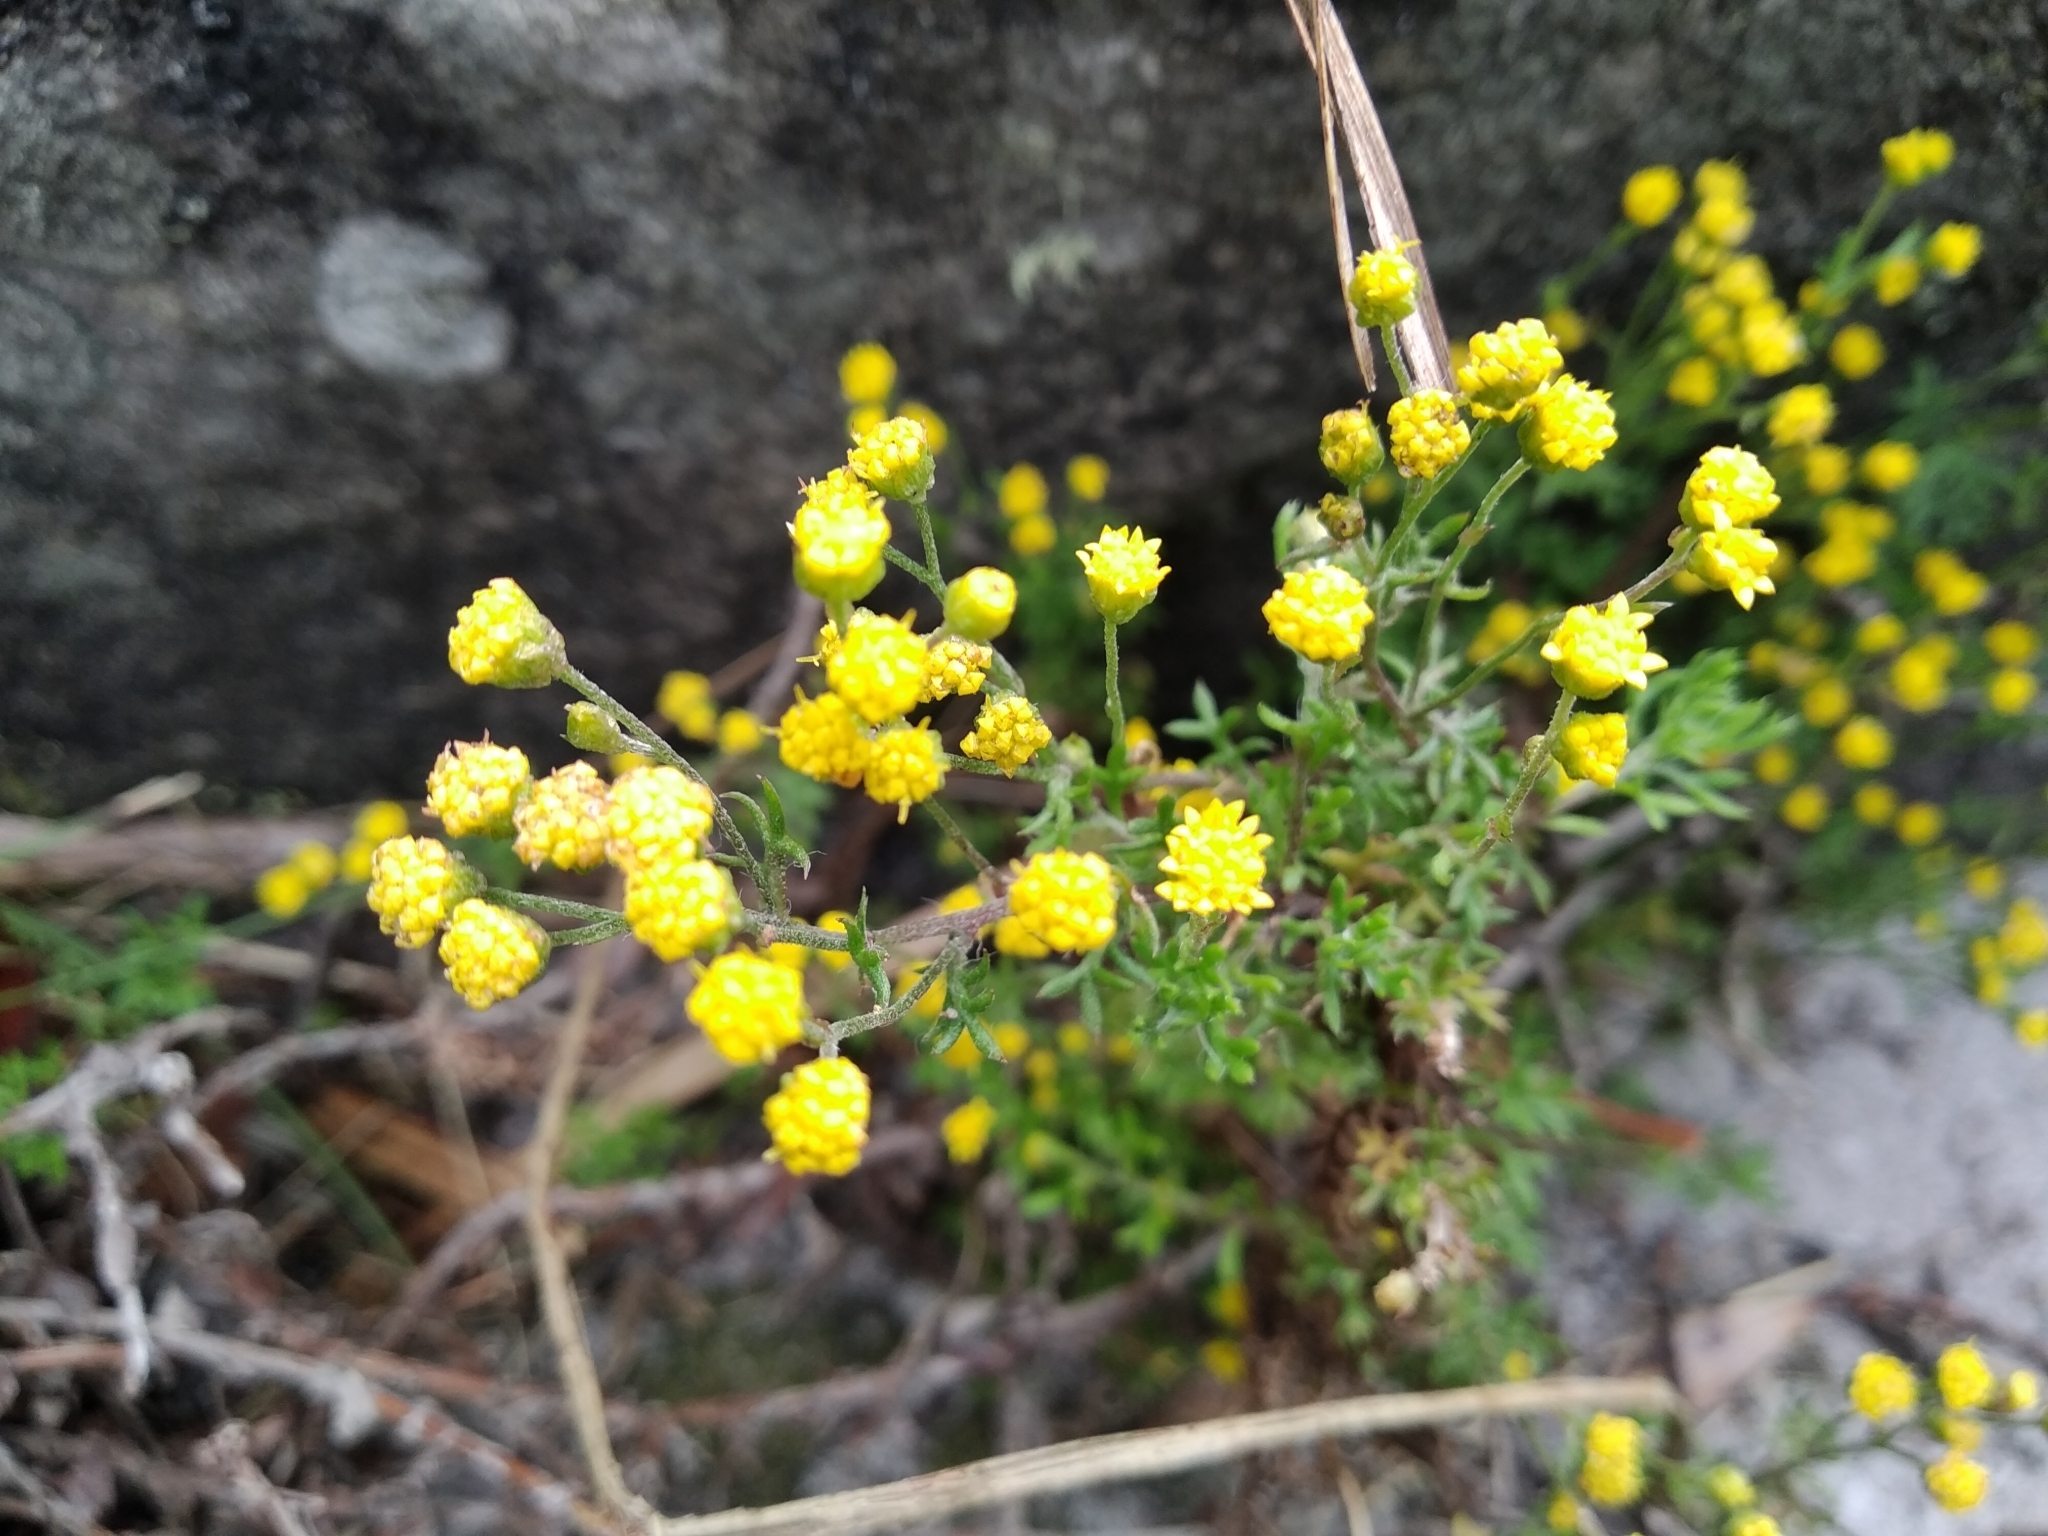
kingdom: Plantae
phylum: Tracheophyta
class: Magnoliopsida
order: Asterales
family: Asteraceae
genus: Hippia
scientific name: Hippia pilosa
